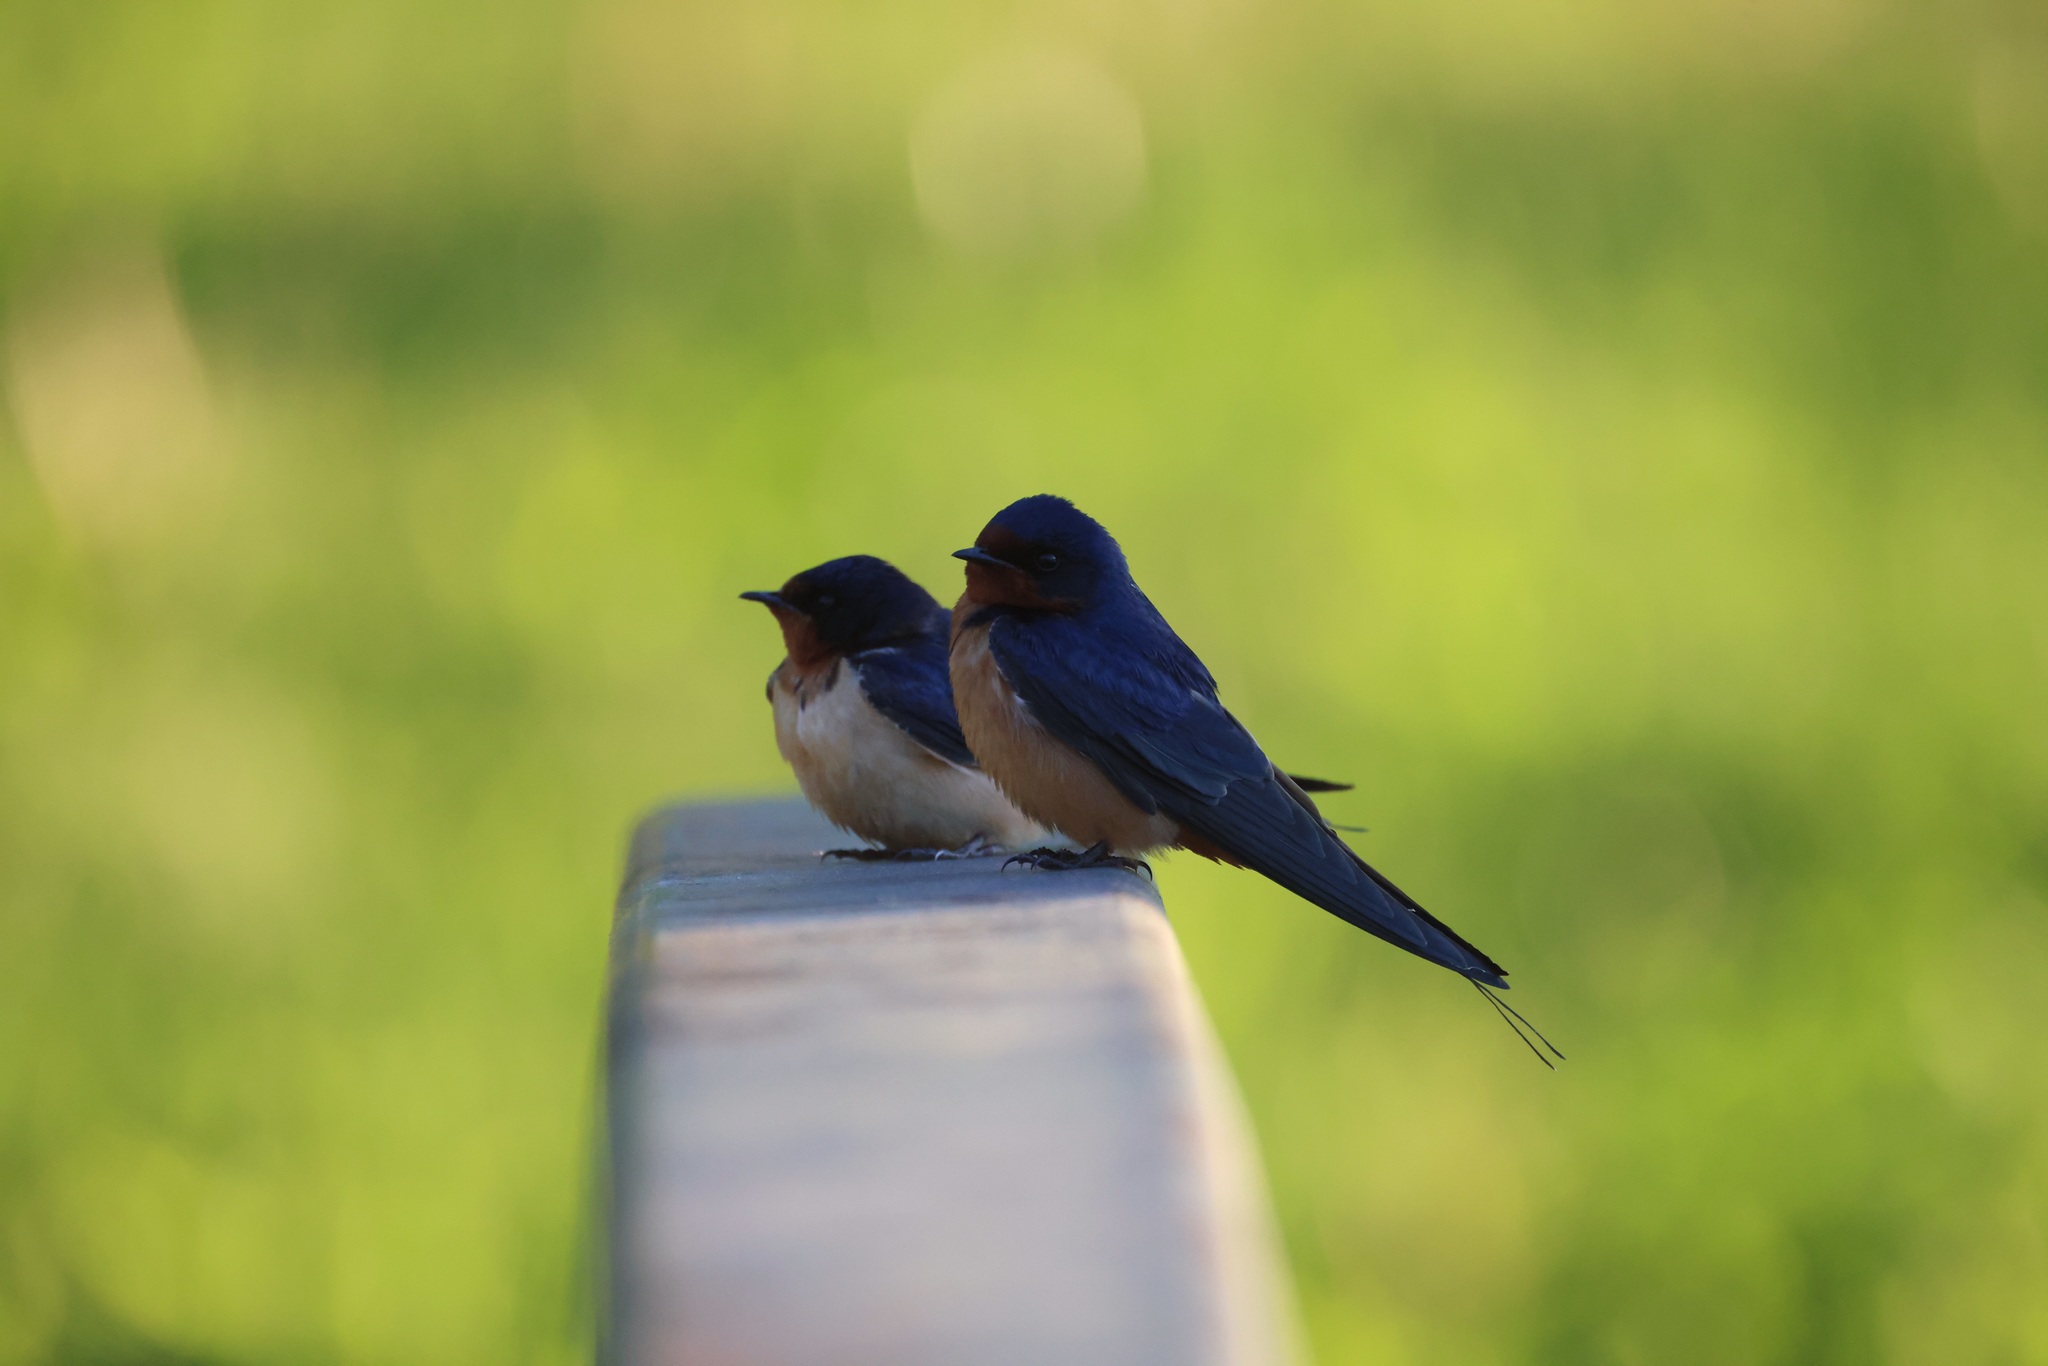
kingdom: Animalia
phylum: Chordata
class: Aves
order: Passeriformes
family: Hirundinidae
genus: Hirundo
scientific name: Hirundo rustica
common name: Barn swallow
